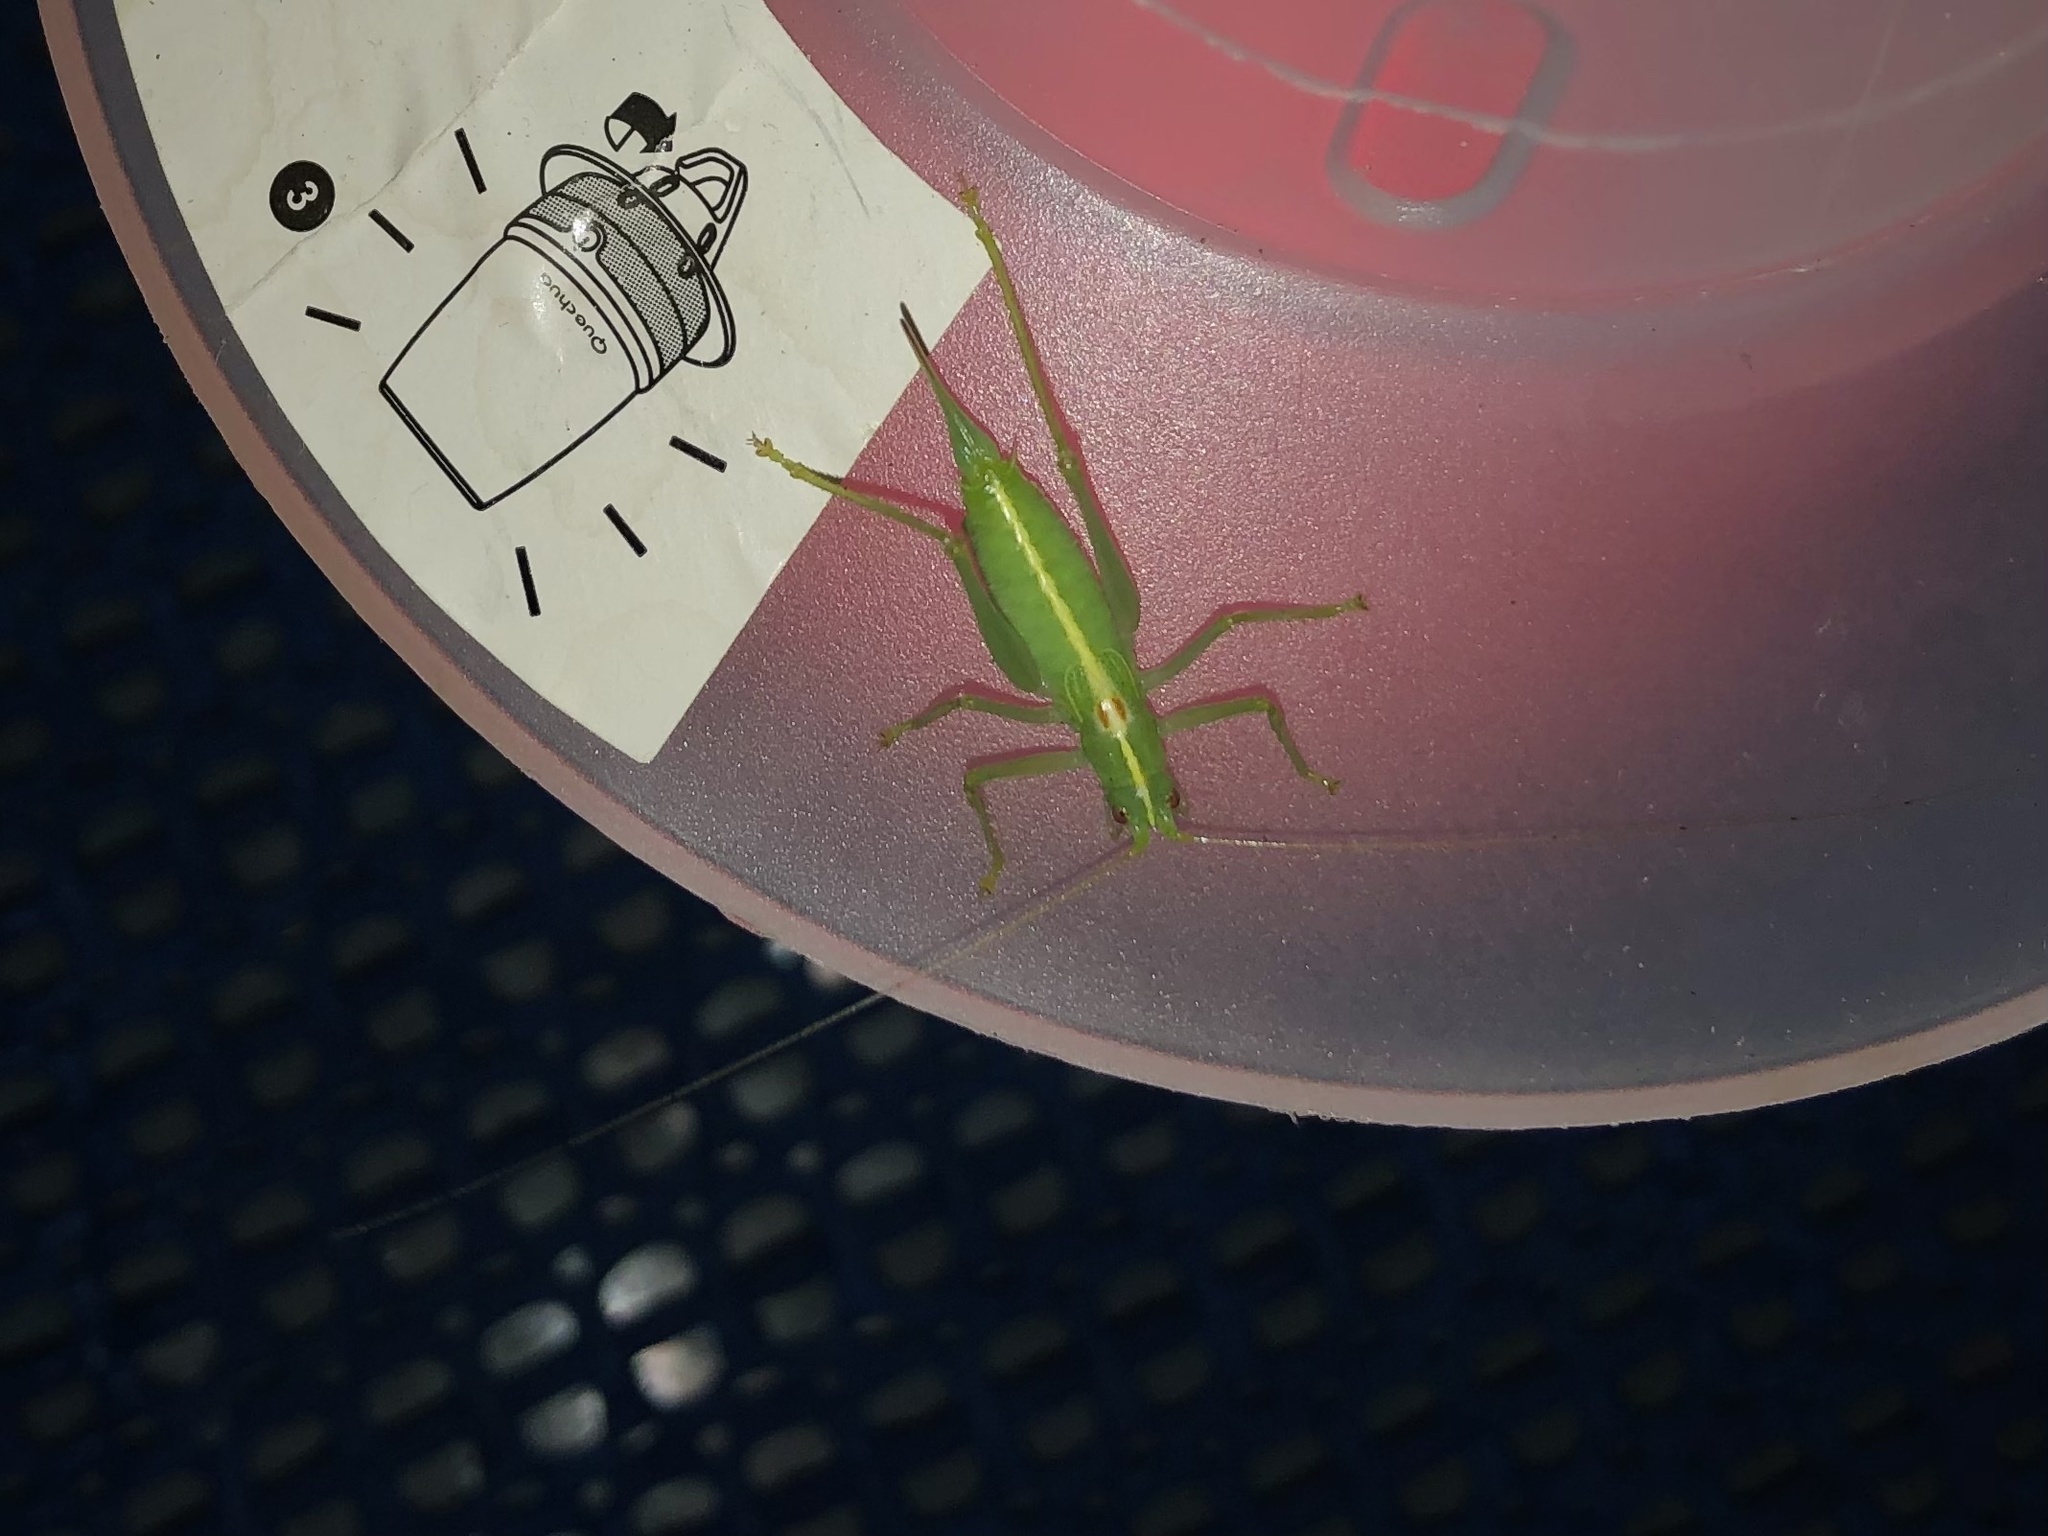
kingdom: Animalia
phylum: Arthropoda
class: Insecta
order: Orthoptera
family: Tettigoniidae
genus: Meconema
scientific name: Meconema meridionale
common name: Southern oak bush-cricket
